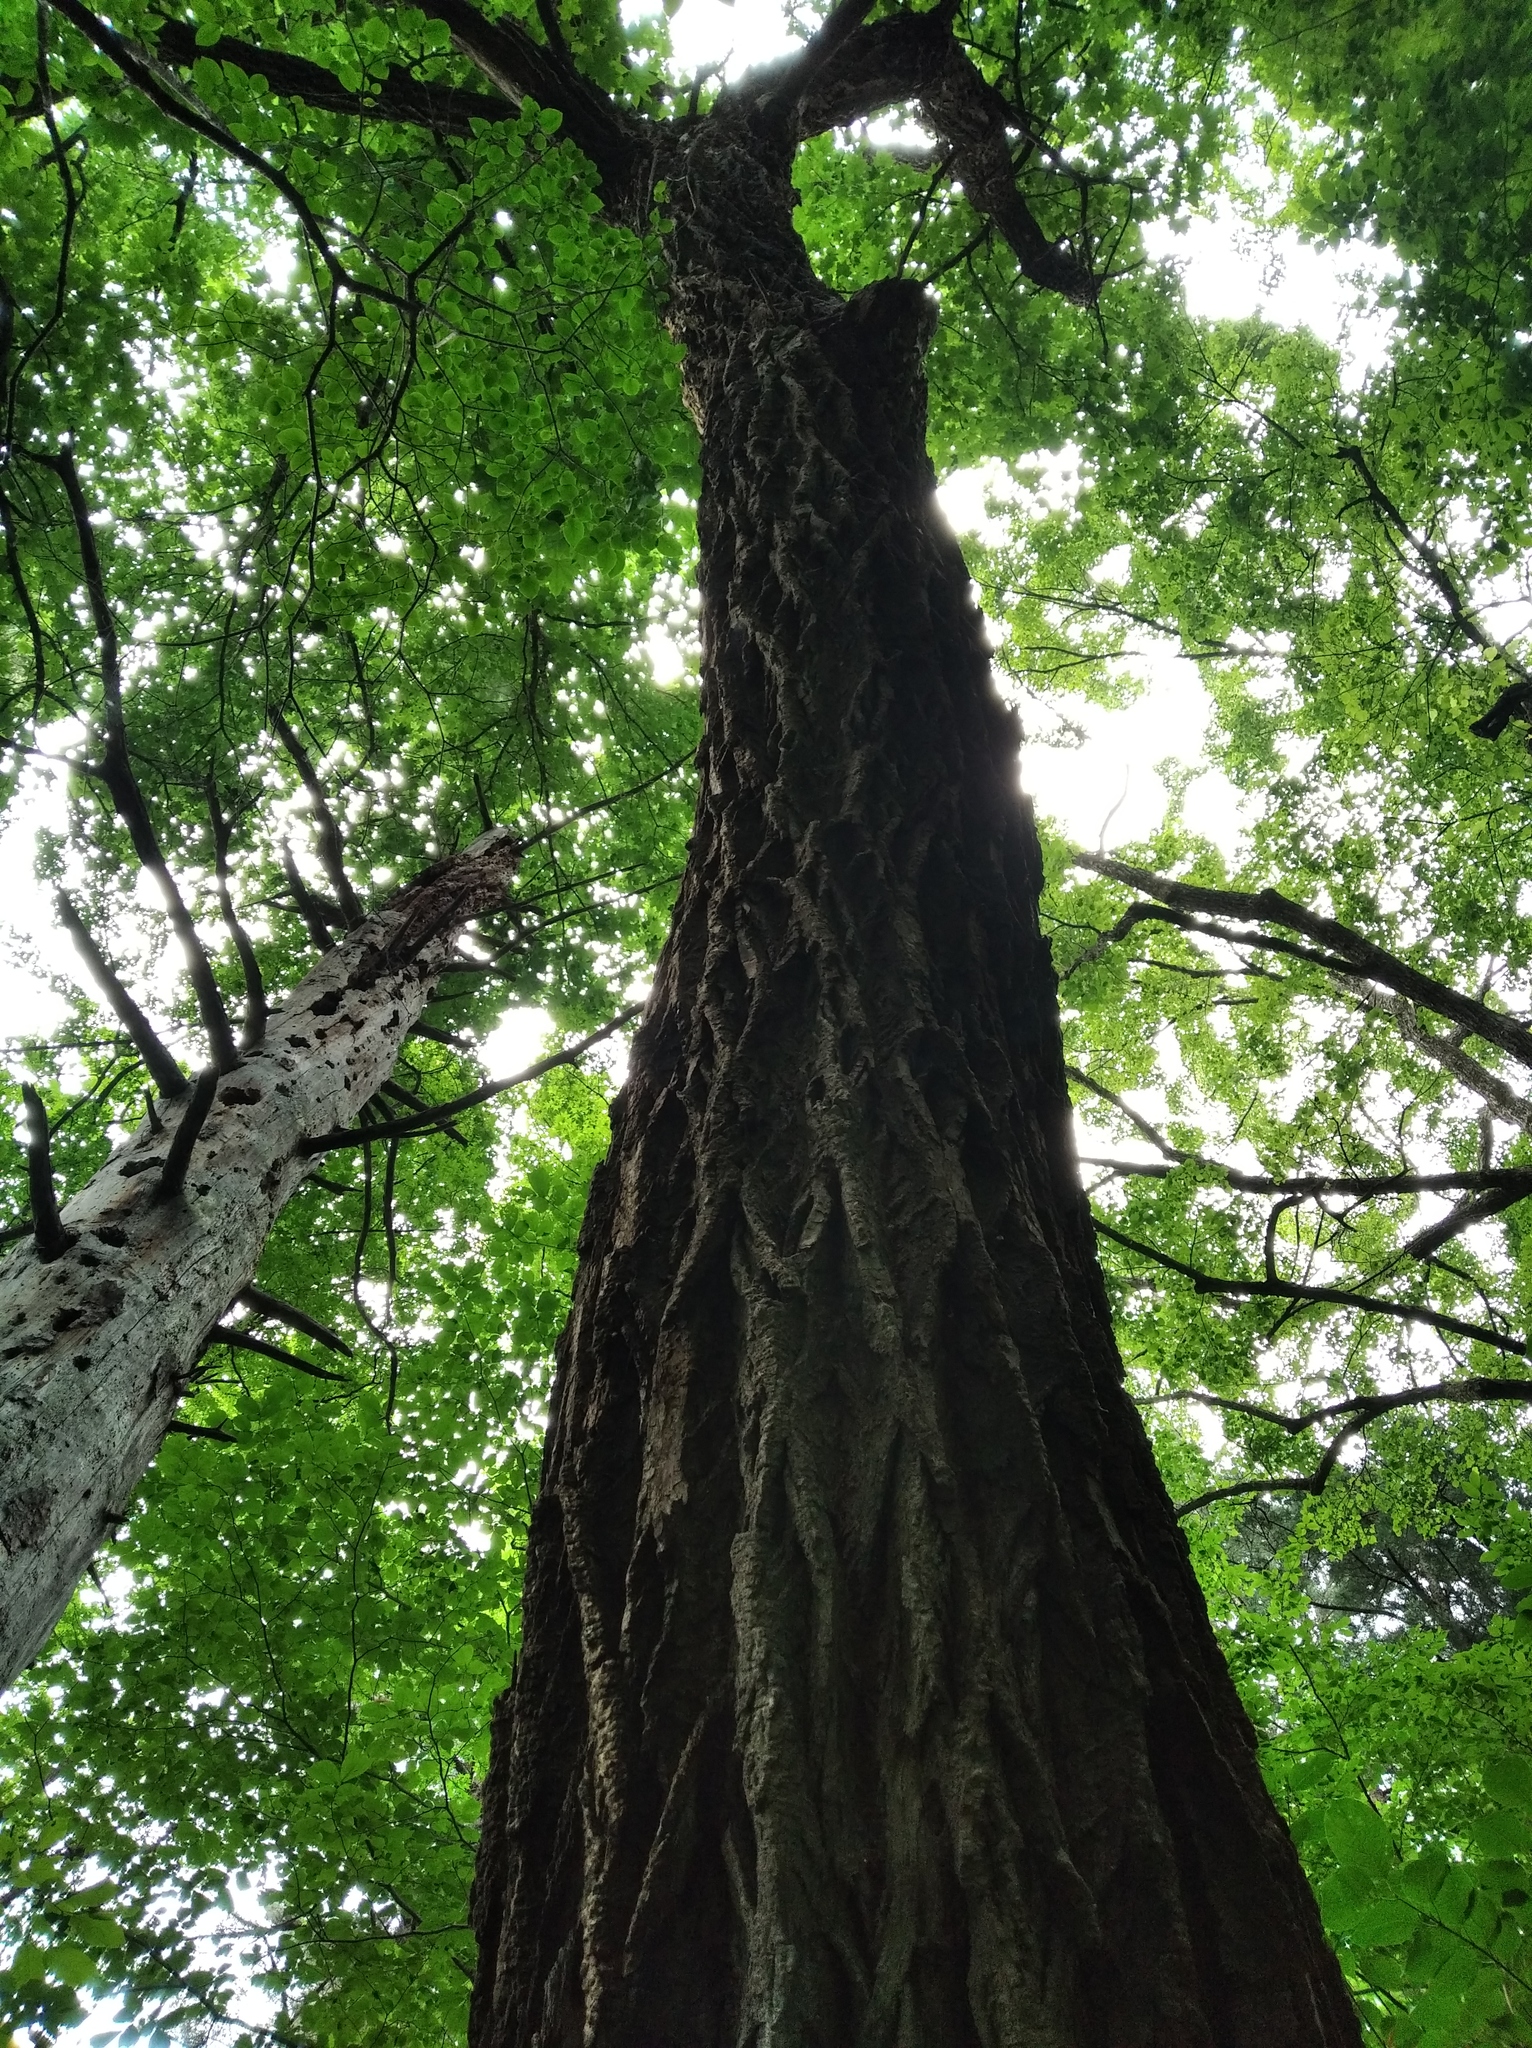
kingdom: Plantae
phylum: Tracheophyta
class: Magnoliopsida
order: Apiales
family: Araliaceae
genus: Kalopanax
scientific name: Kalopanax septemlobus
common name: Castor aralia
